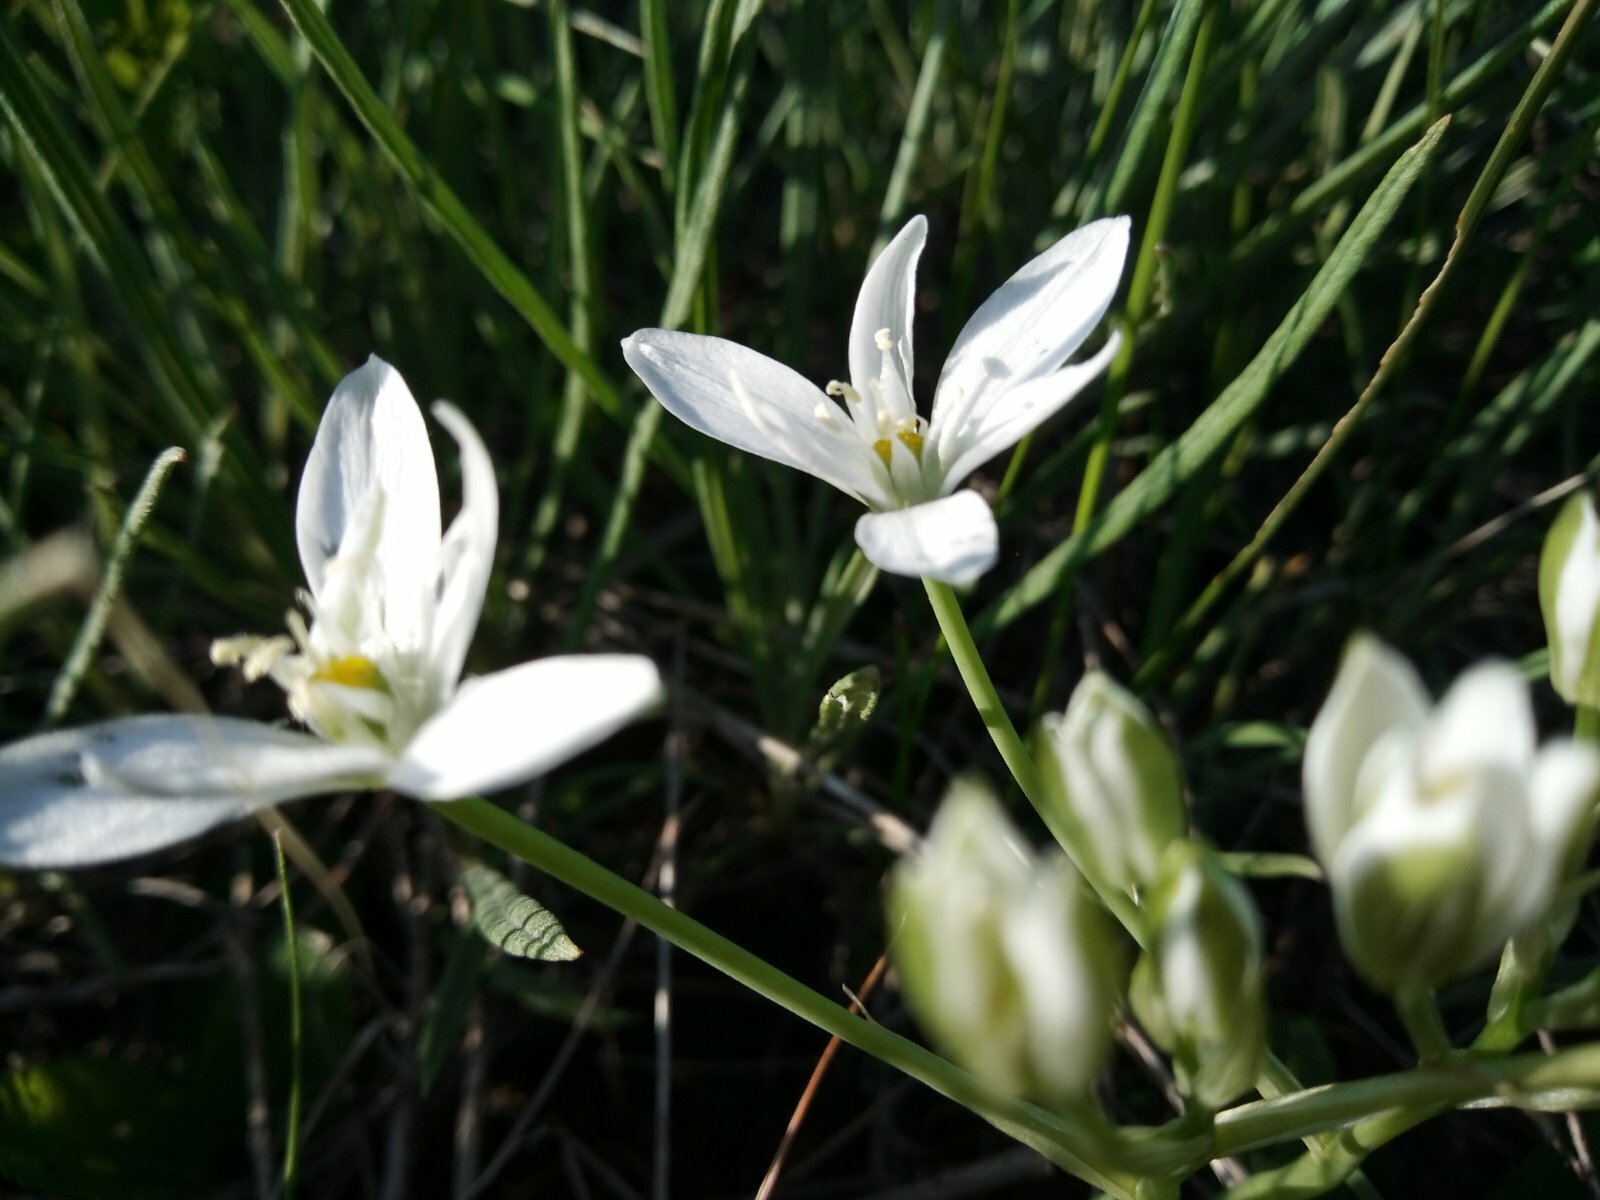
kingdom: Plantae
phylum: Tracheophyta
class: Liliopsida
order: Asparagales
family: Asparagaceae
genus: Ornithogalum
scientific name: Ornithogalum orthophyllum
